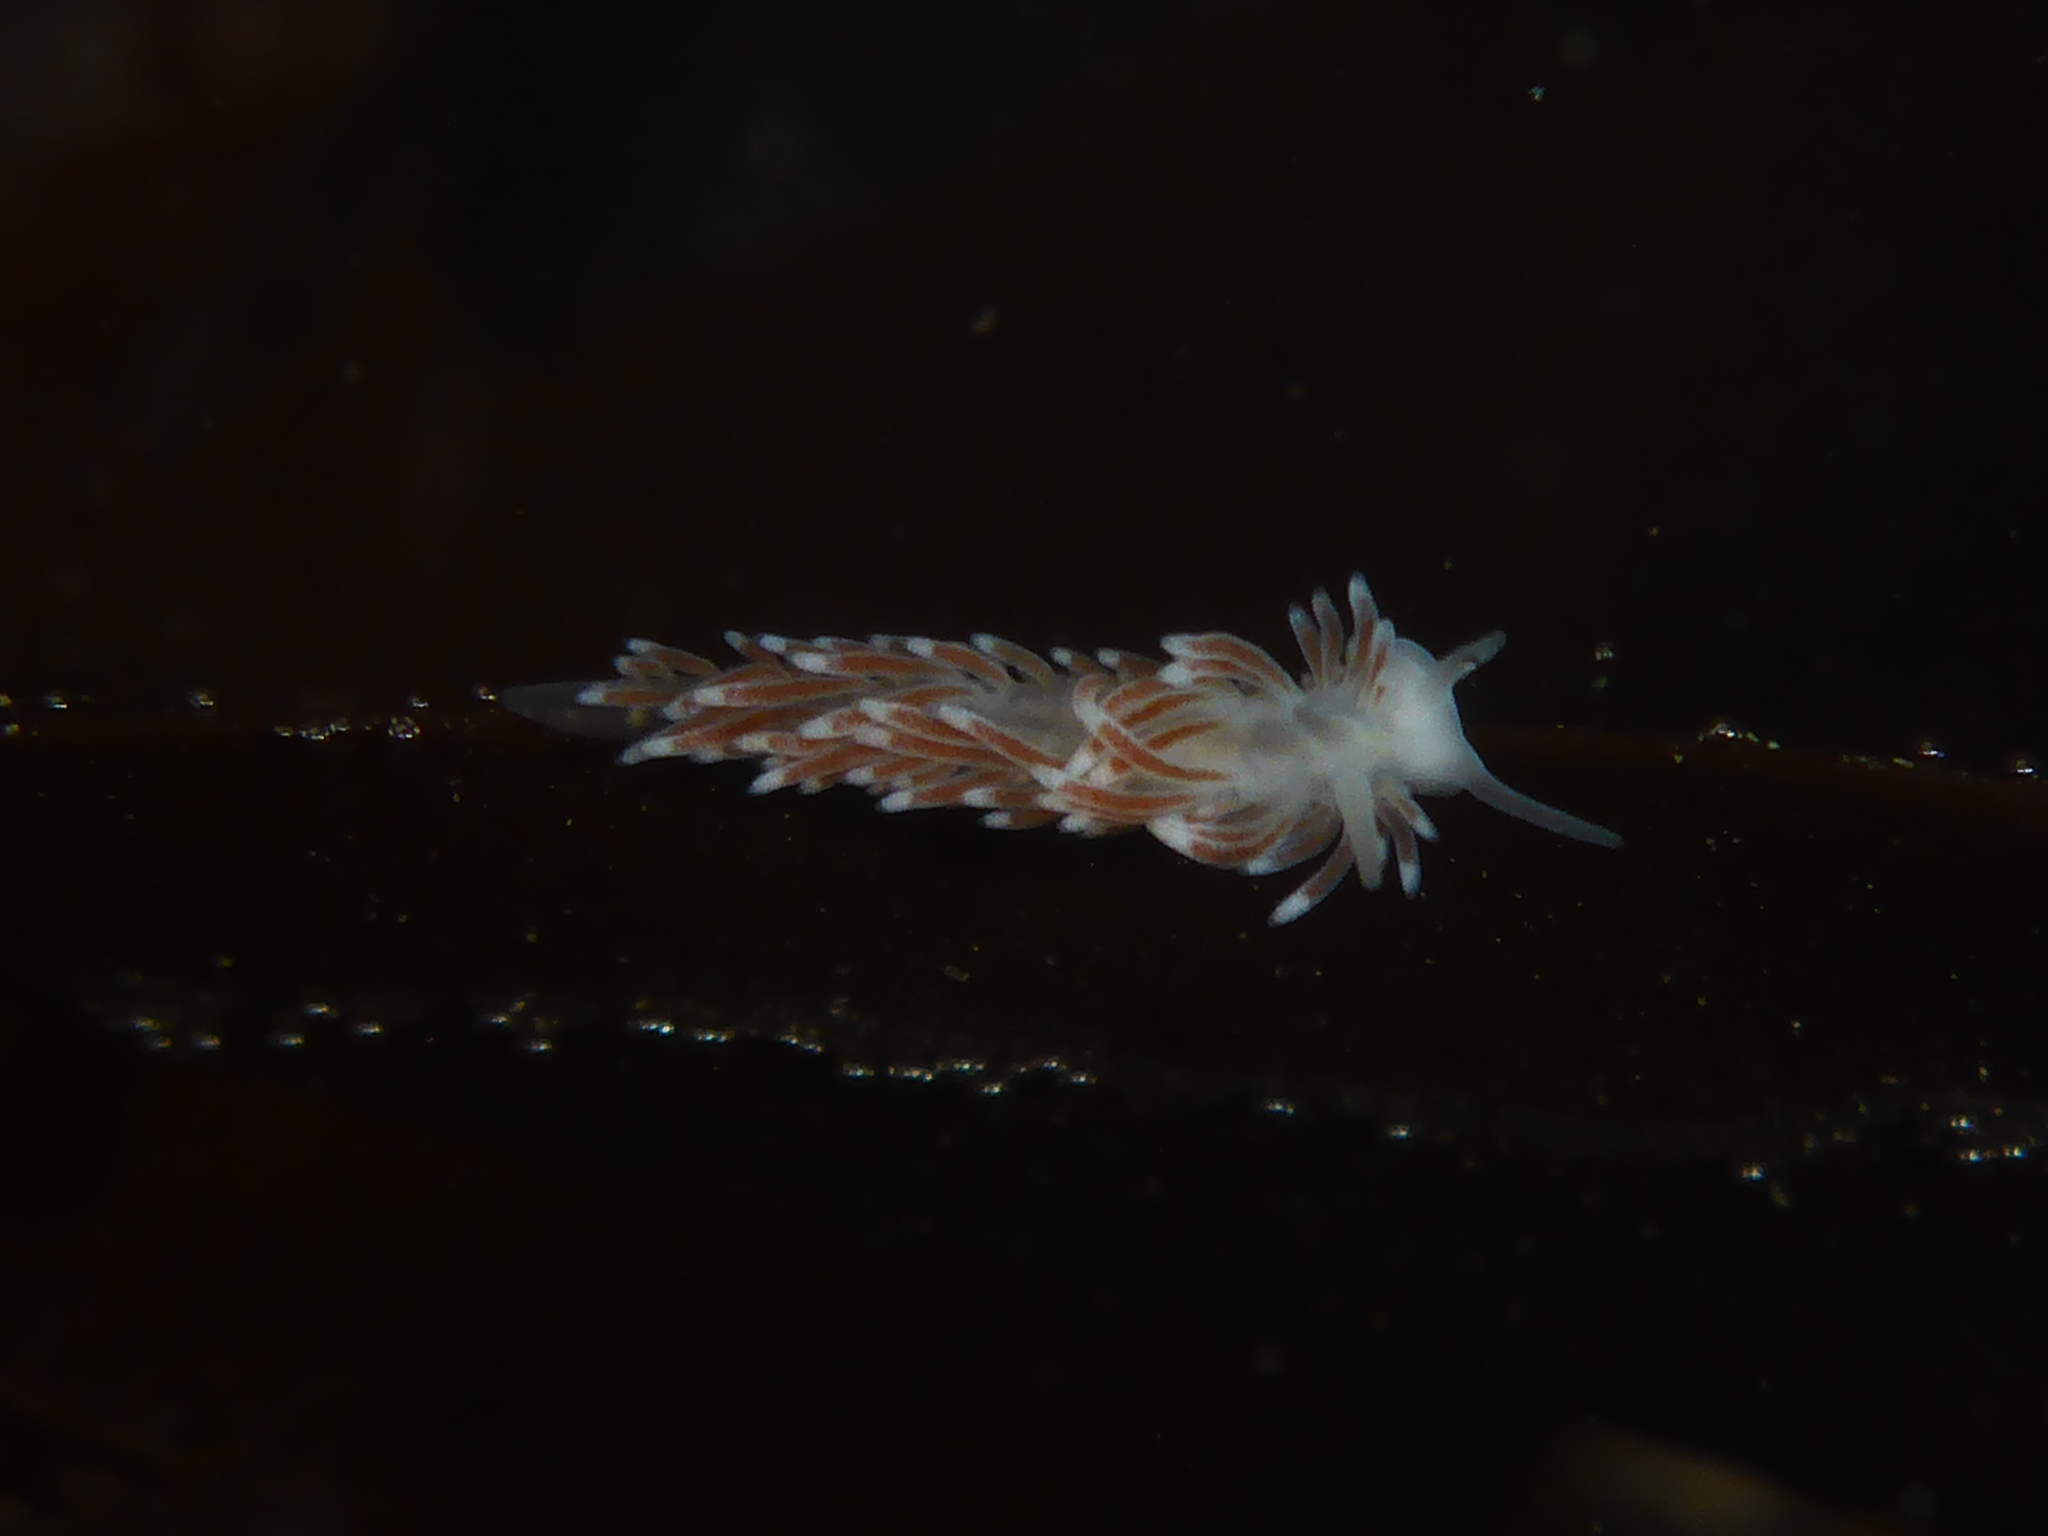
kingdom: Animalia
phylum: Mollusca
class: Gastropoda
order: Nudibranchia
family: Cuthonidae
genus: Cuthona
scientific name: Cuthona divae
